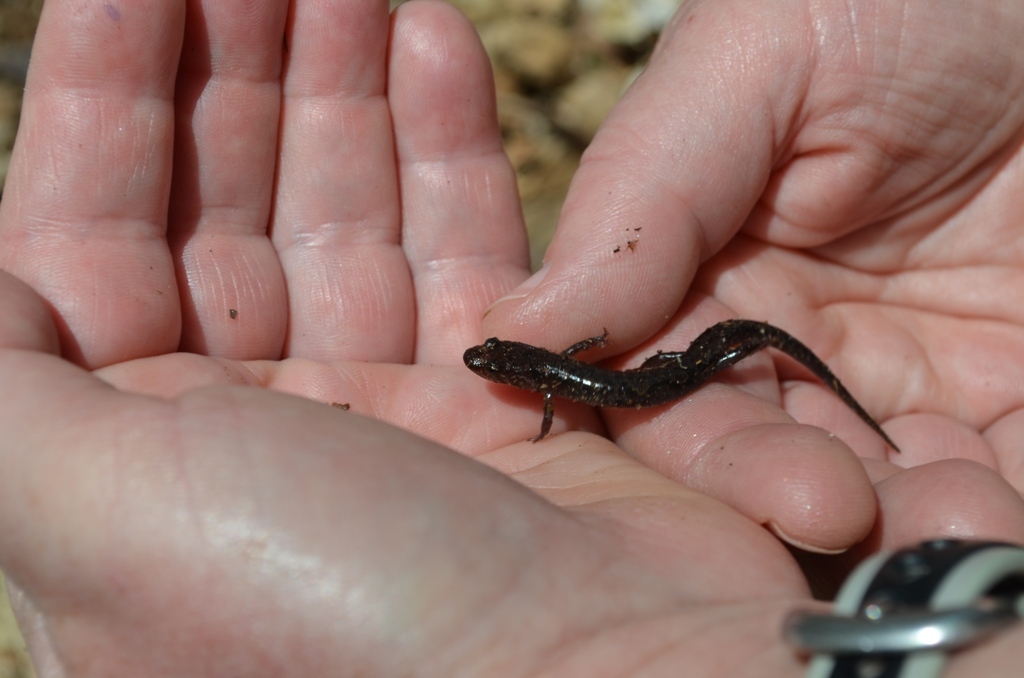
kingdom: Animalia
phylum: Chordata
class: Amphibia
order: Caudata
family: Plethodontidae
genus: Desmognathus
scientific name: Desmognathus ocoee
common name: Ocoee salamander
